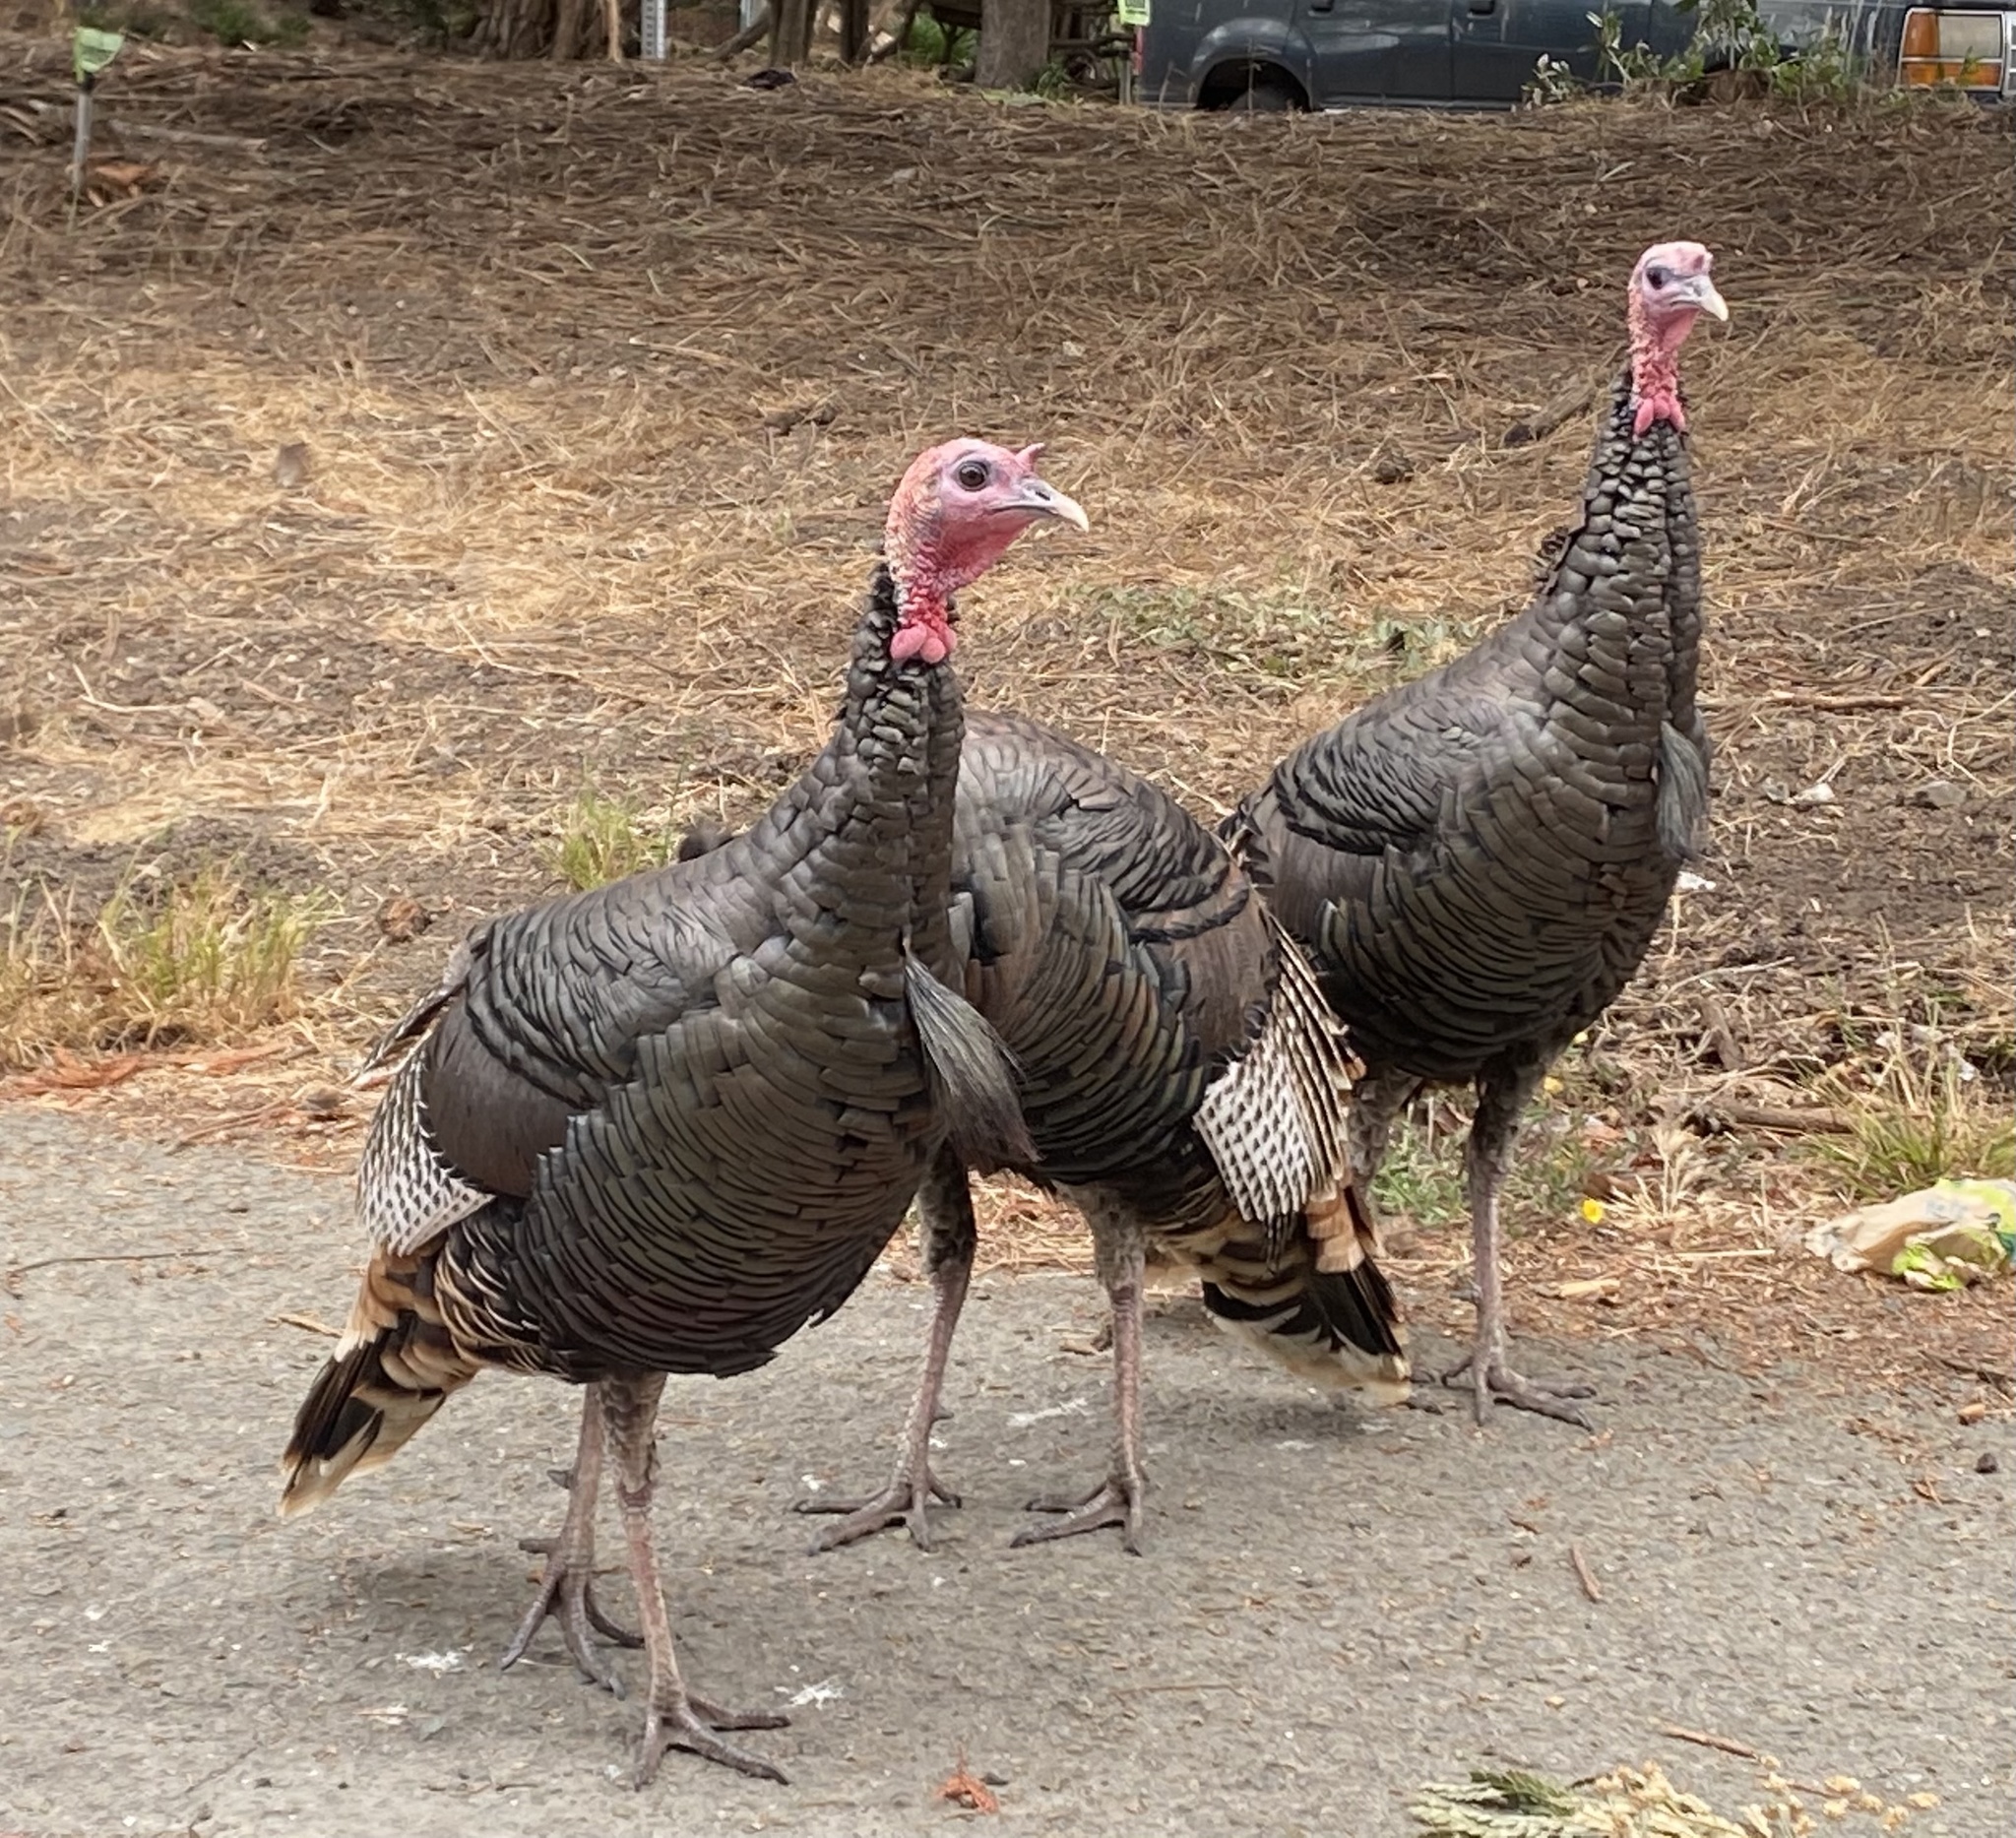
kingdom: Animalia
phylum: Chordata
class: Aves
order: Galliformes
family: Phasianidae
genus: Meleagris
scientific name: Meleagris gallopavo
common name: Wild turkey
